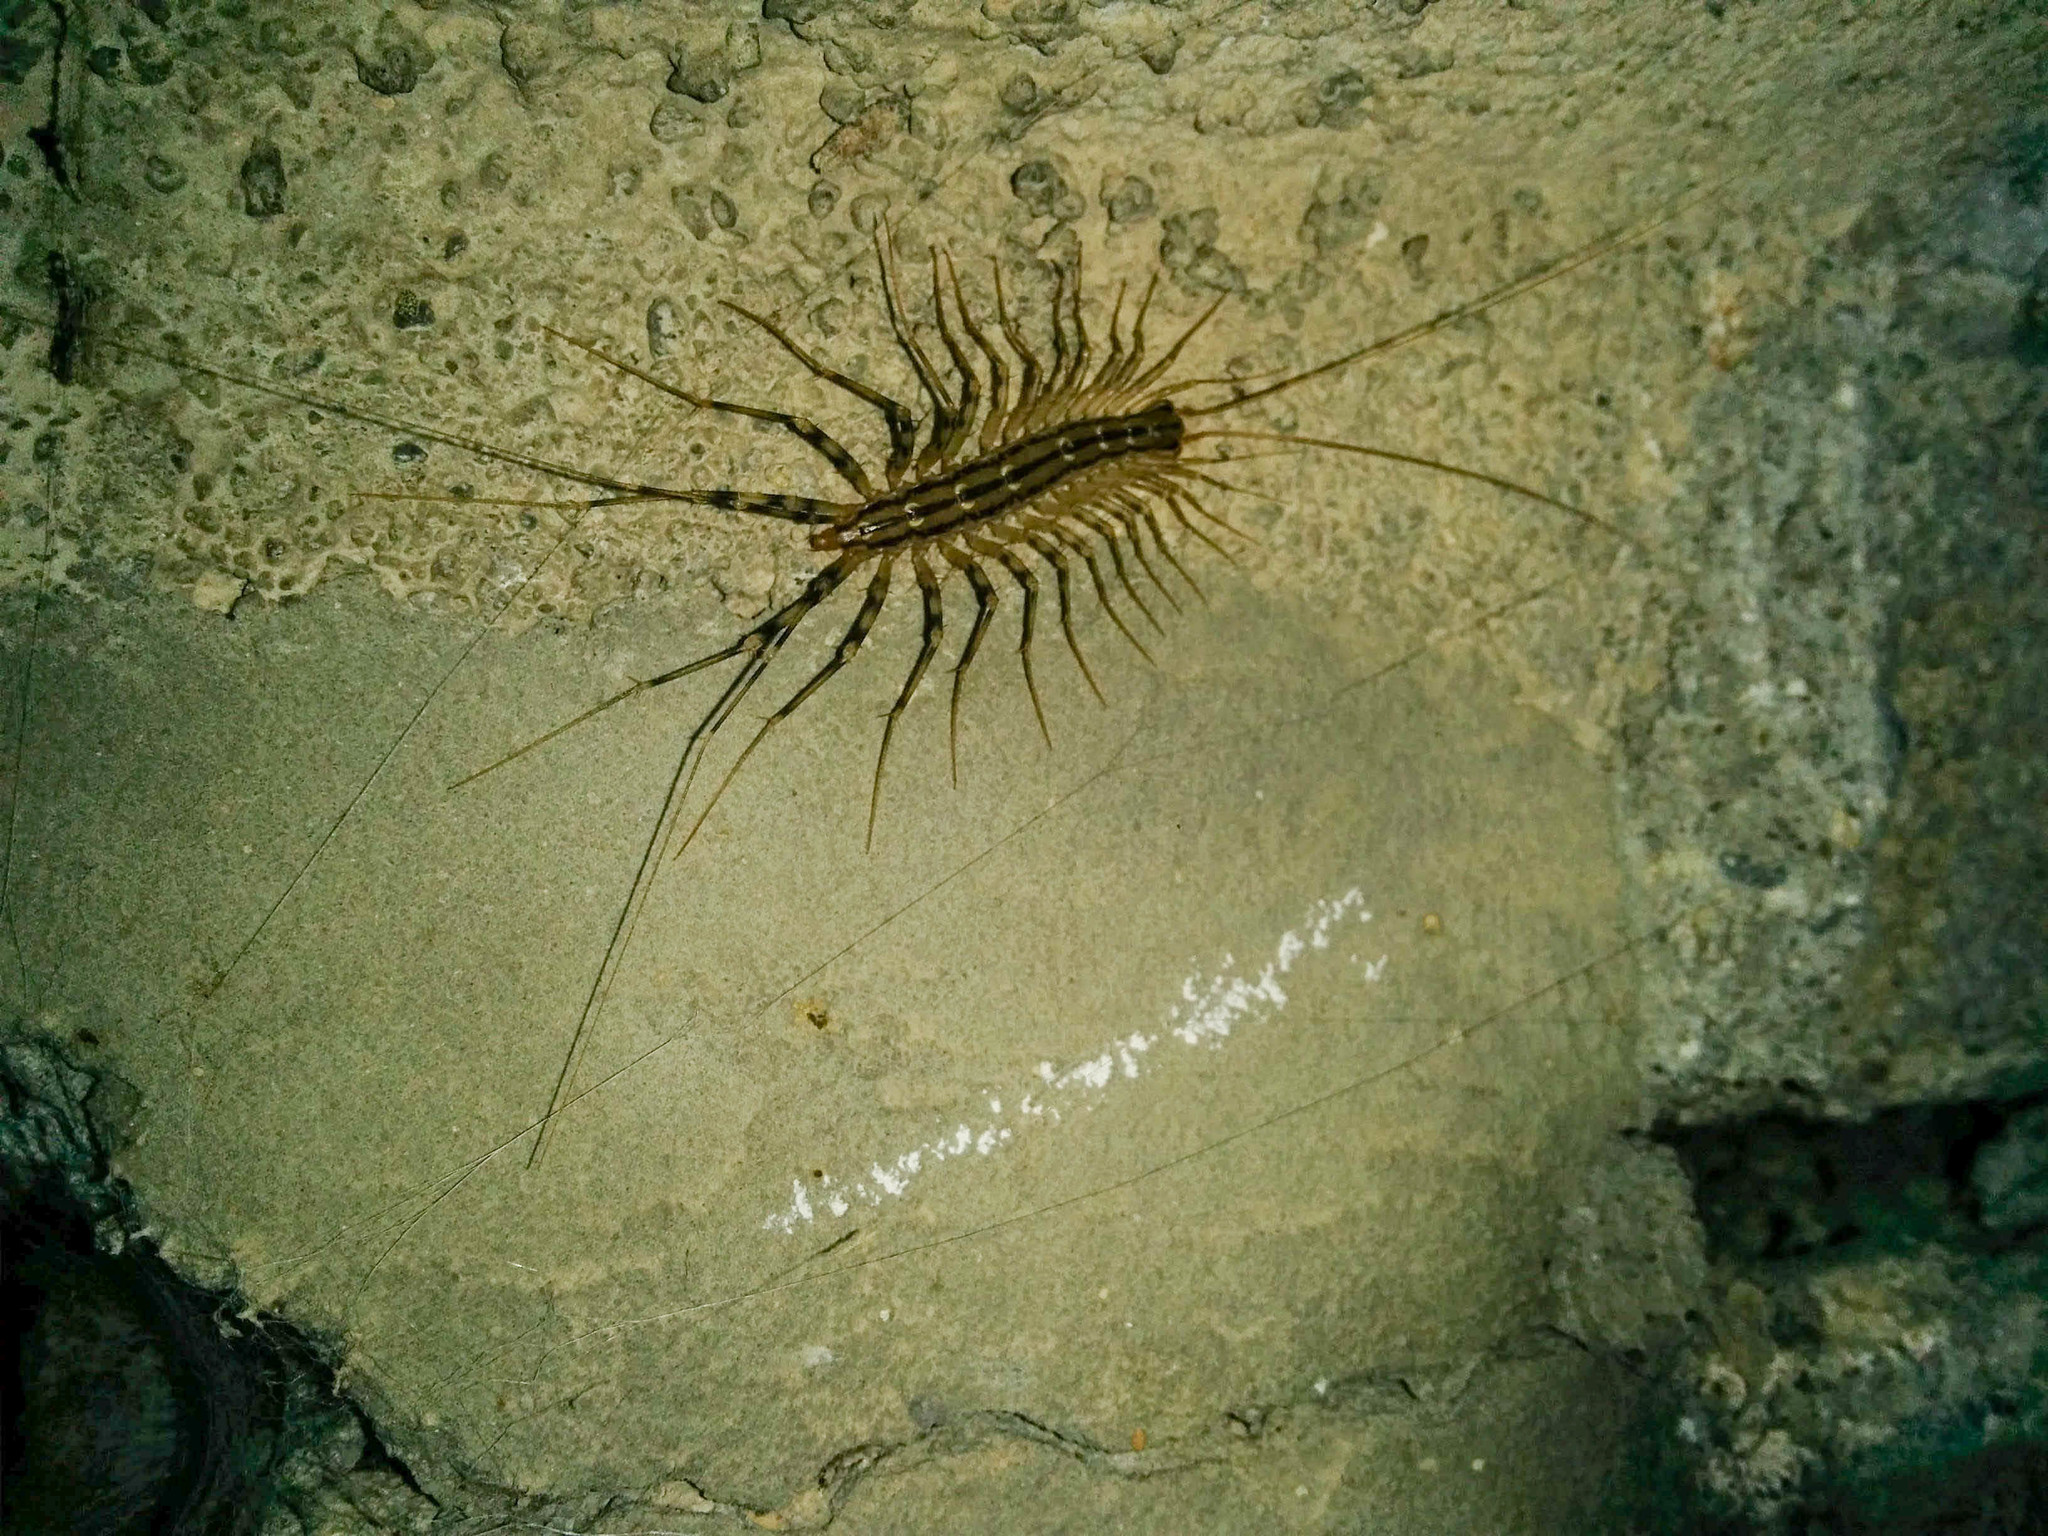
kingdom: Animalia
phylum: Arthropoda
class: Chilopoda
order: Scutigeromorpha
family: Scutigeridae
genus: Scutigera
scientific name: Scutigera coleoptrata
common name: House centipede
